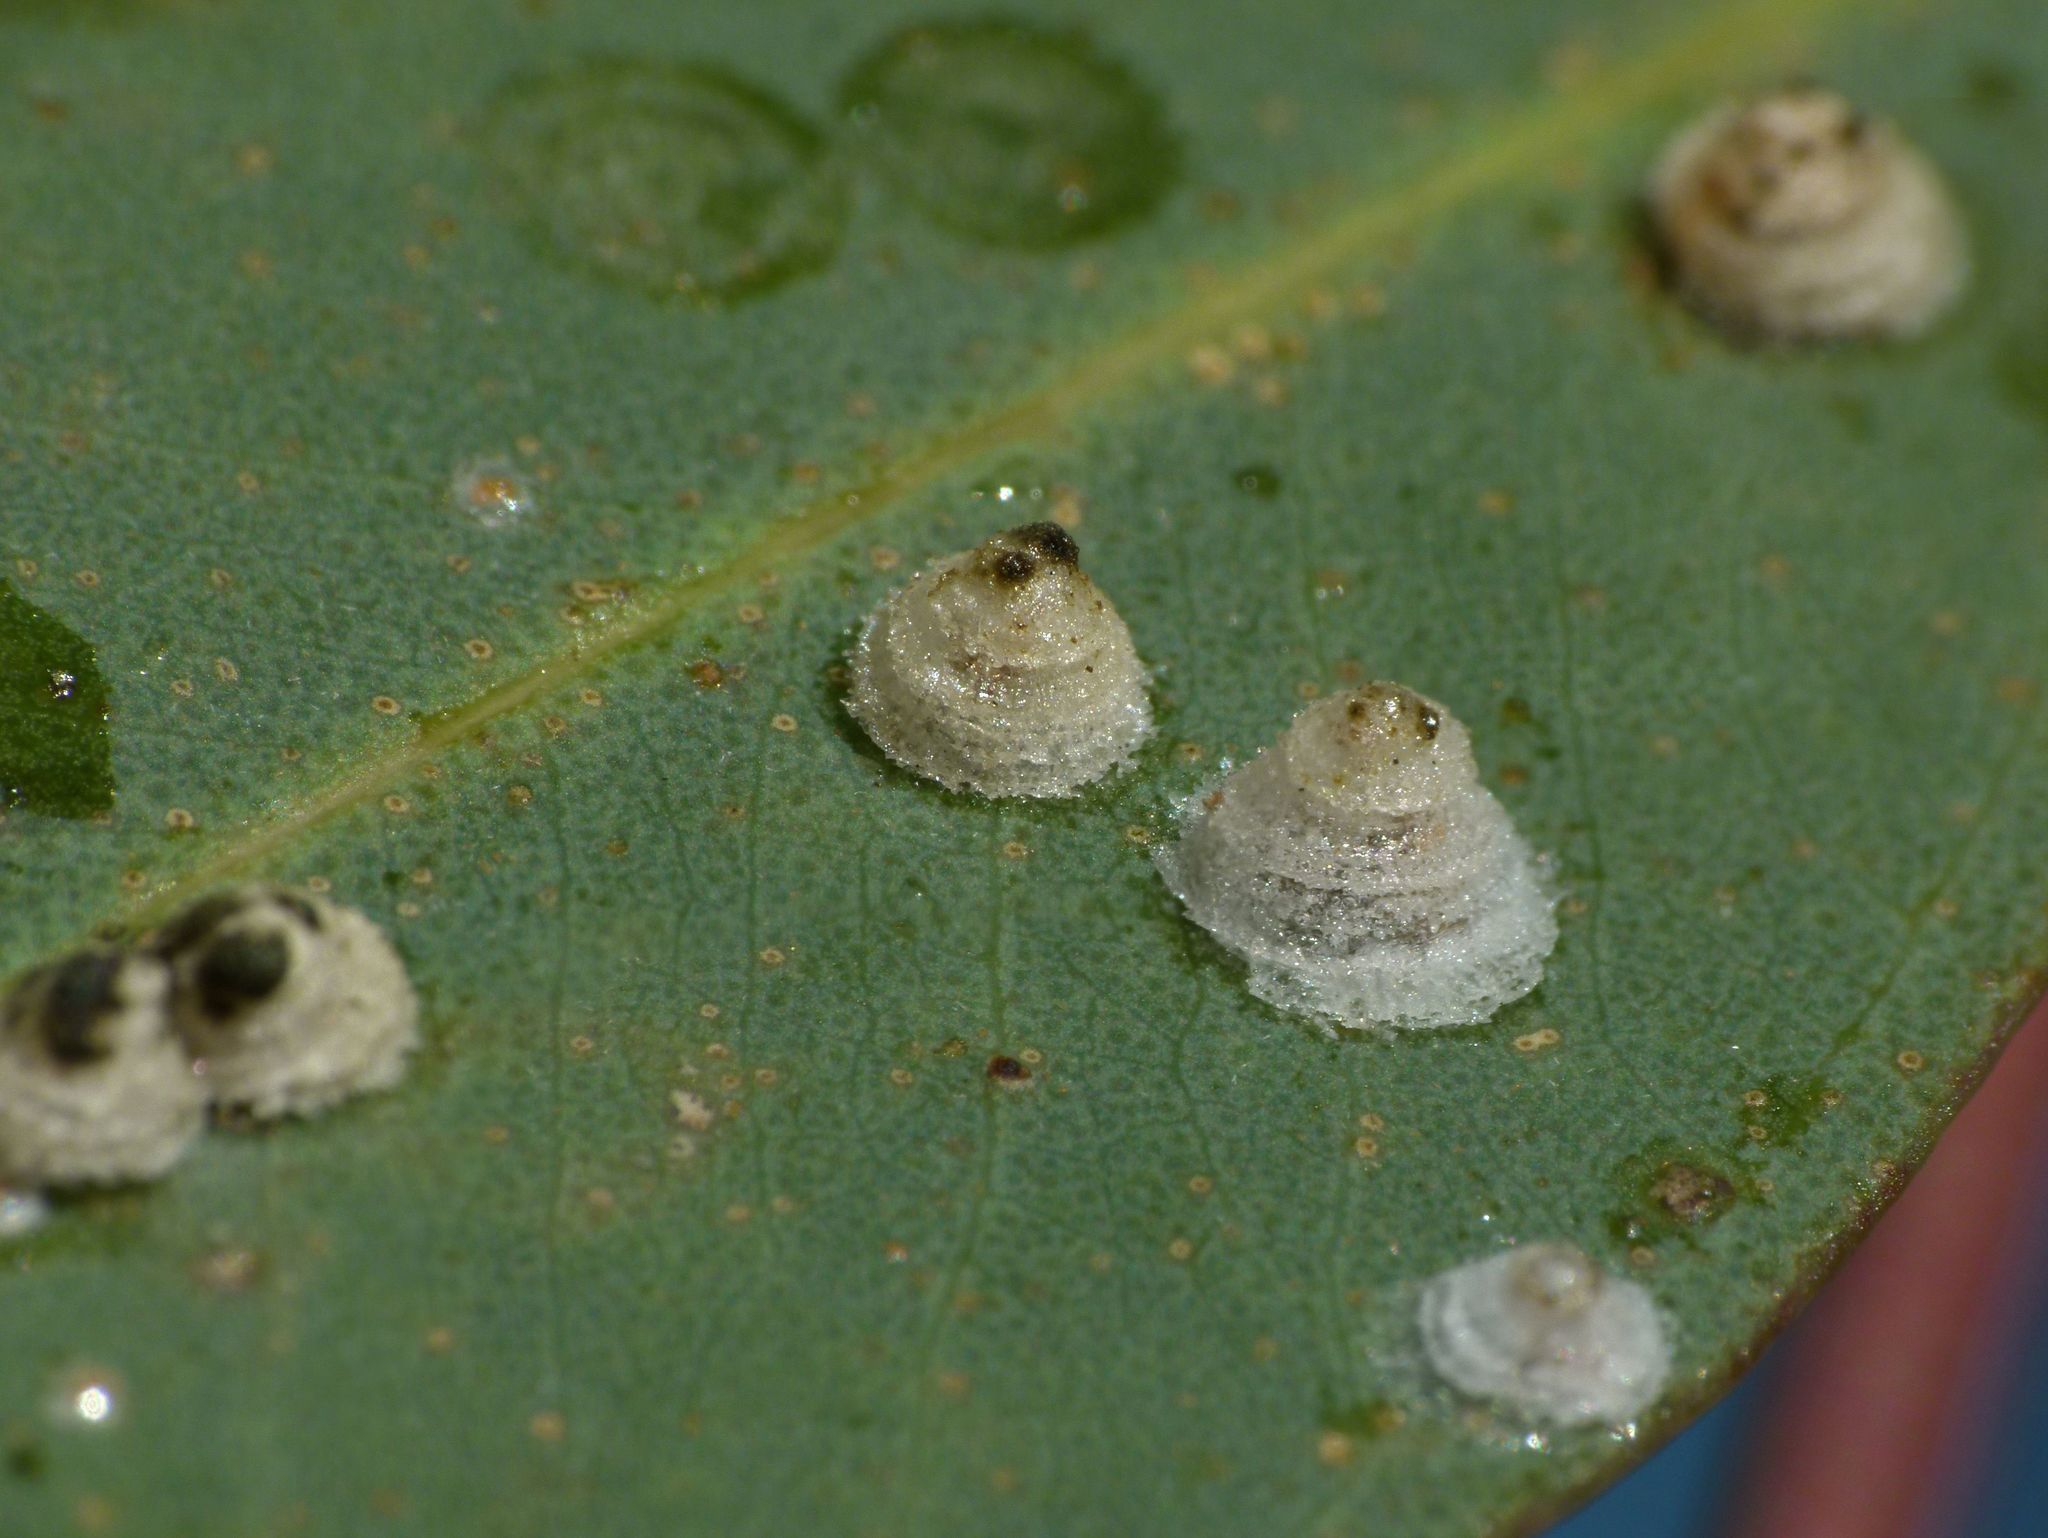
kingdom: Animalia
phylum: Arthropoda
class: Insecta
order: Hemiptera
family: Aphalaridae
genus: Glycaspis
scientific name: Glycaspis brimblecombei
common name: Red gum lerp psyllid
